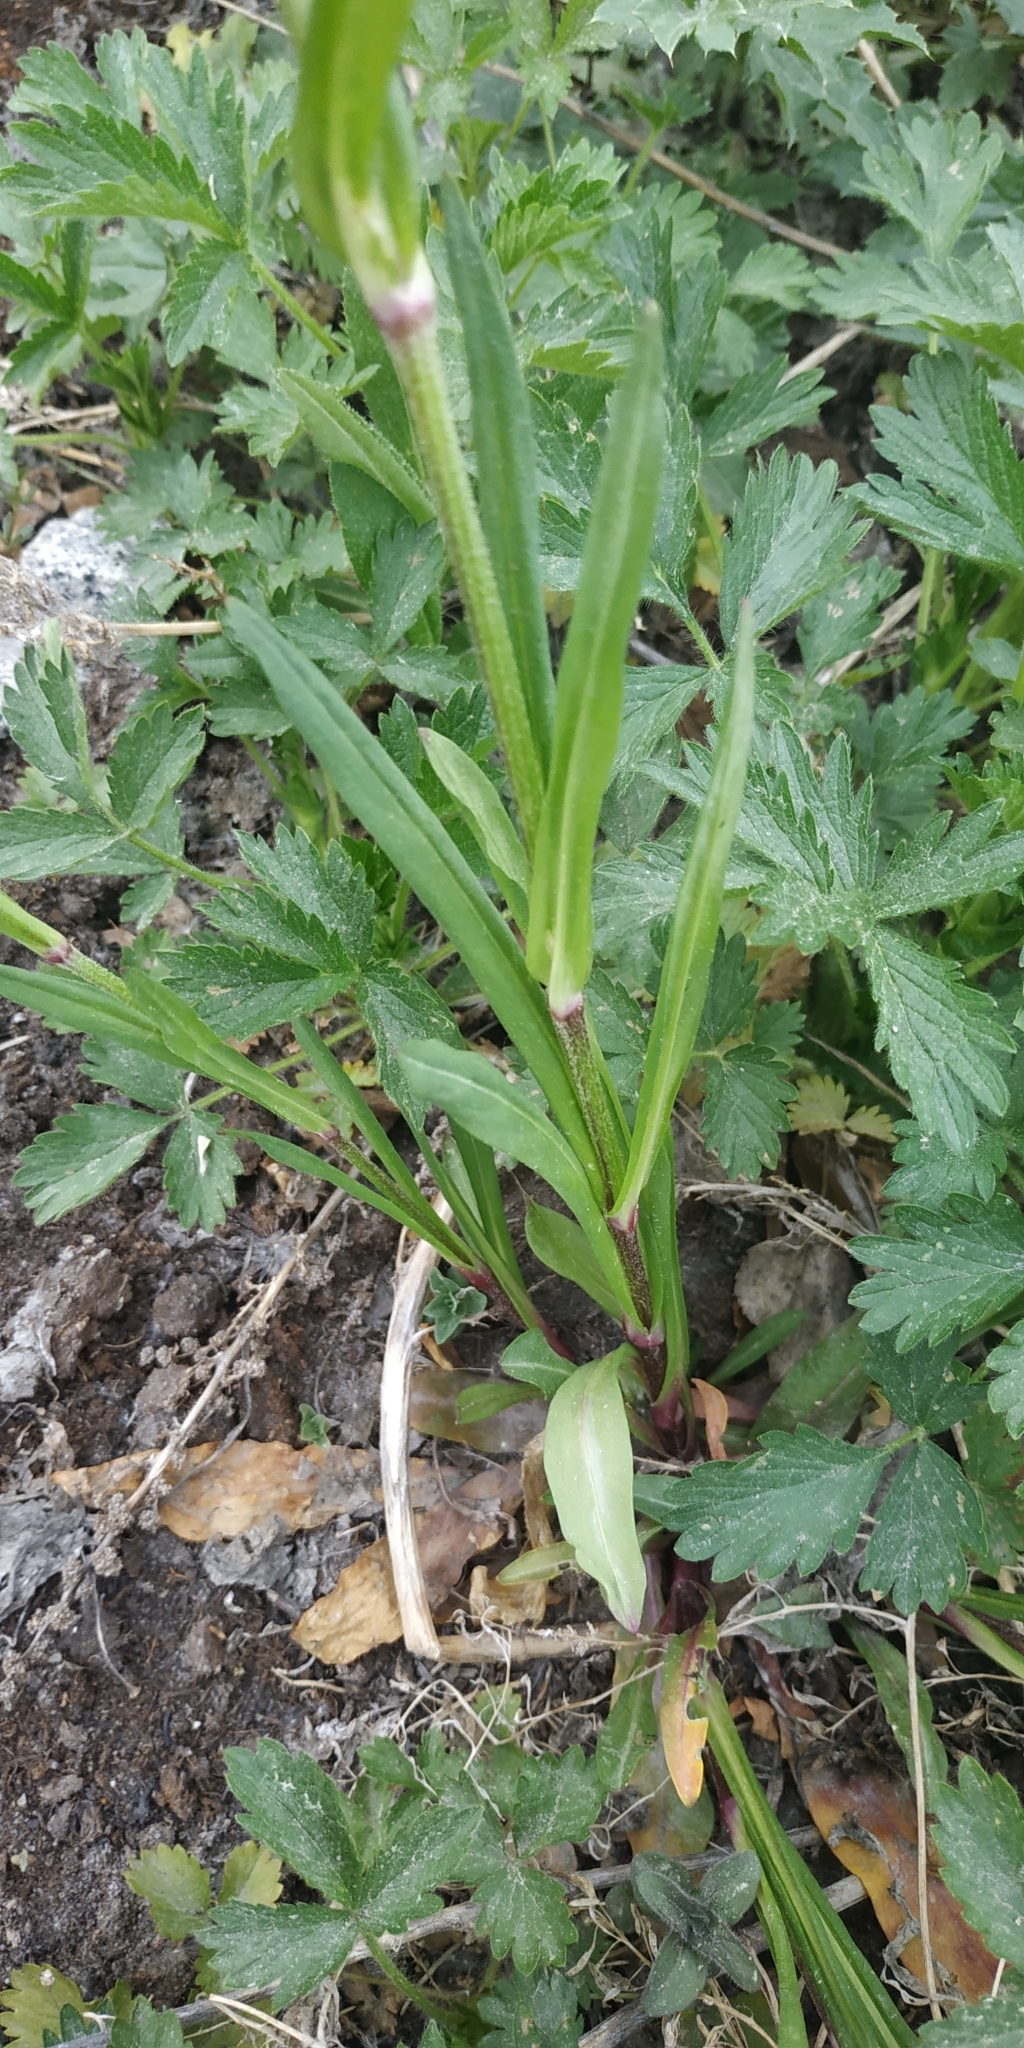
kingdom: Plantae
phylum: Tracheophyta
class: Magnoliopsida
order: Caryophyllales
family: Caryophyllaceae
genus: Silene
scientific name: Silene flos-cuculi
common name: Ragged-robin
